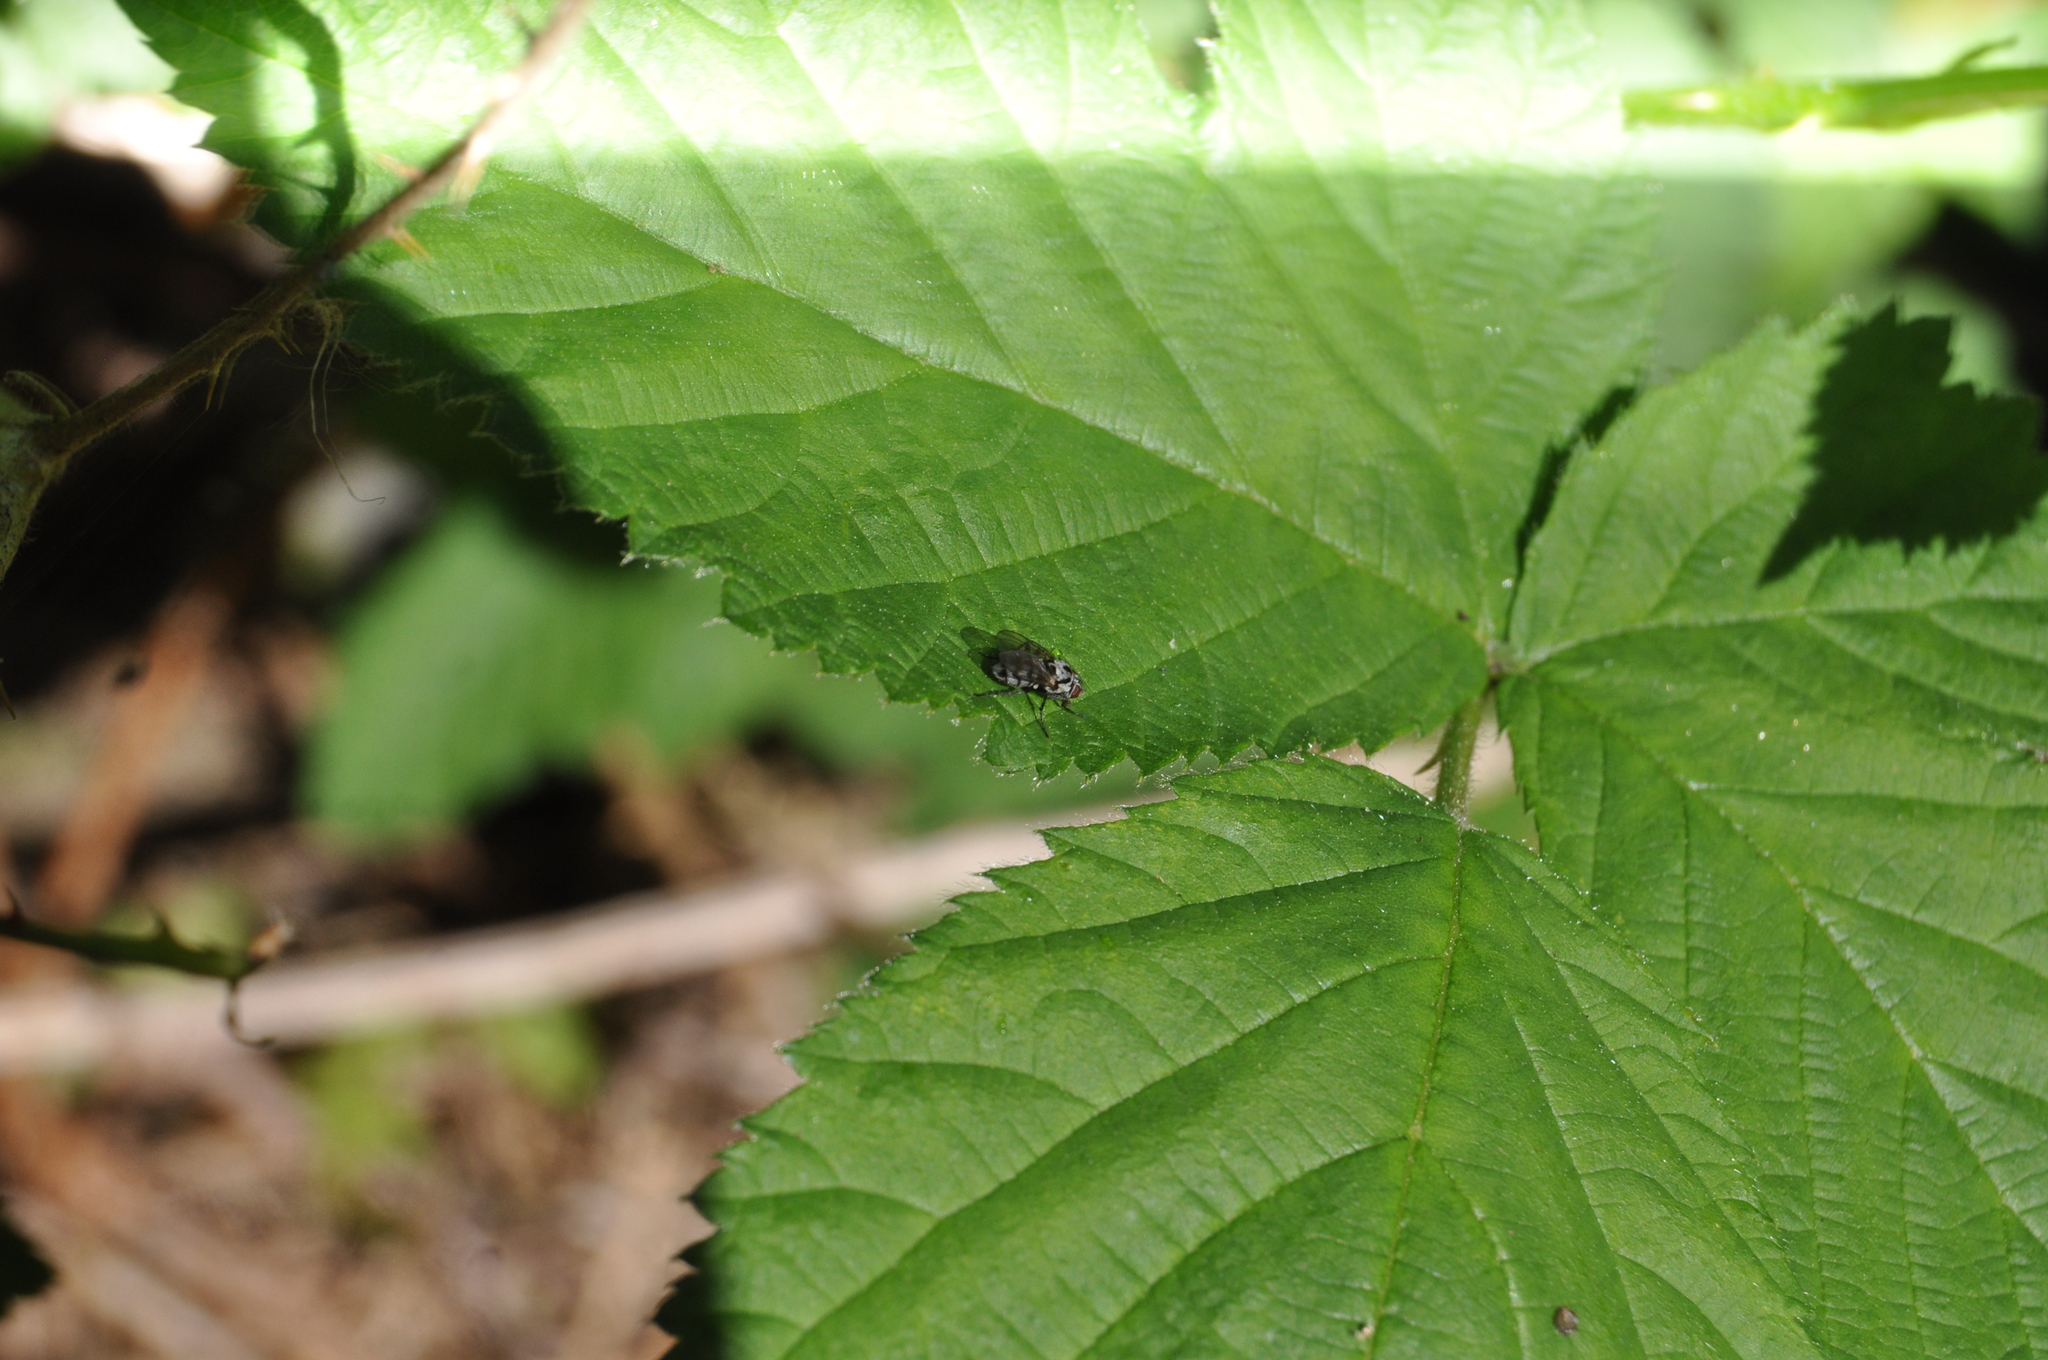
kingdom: Animalia
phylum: Arthropoda
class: Insecta
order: Diptera
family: Anthomyiidae
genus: Anthomyia
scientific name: Anthomyia procellaris
